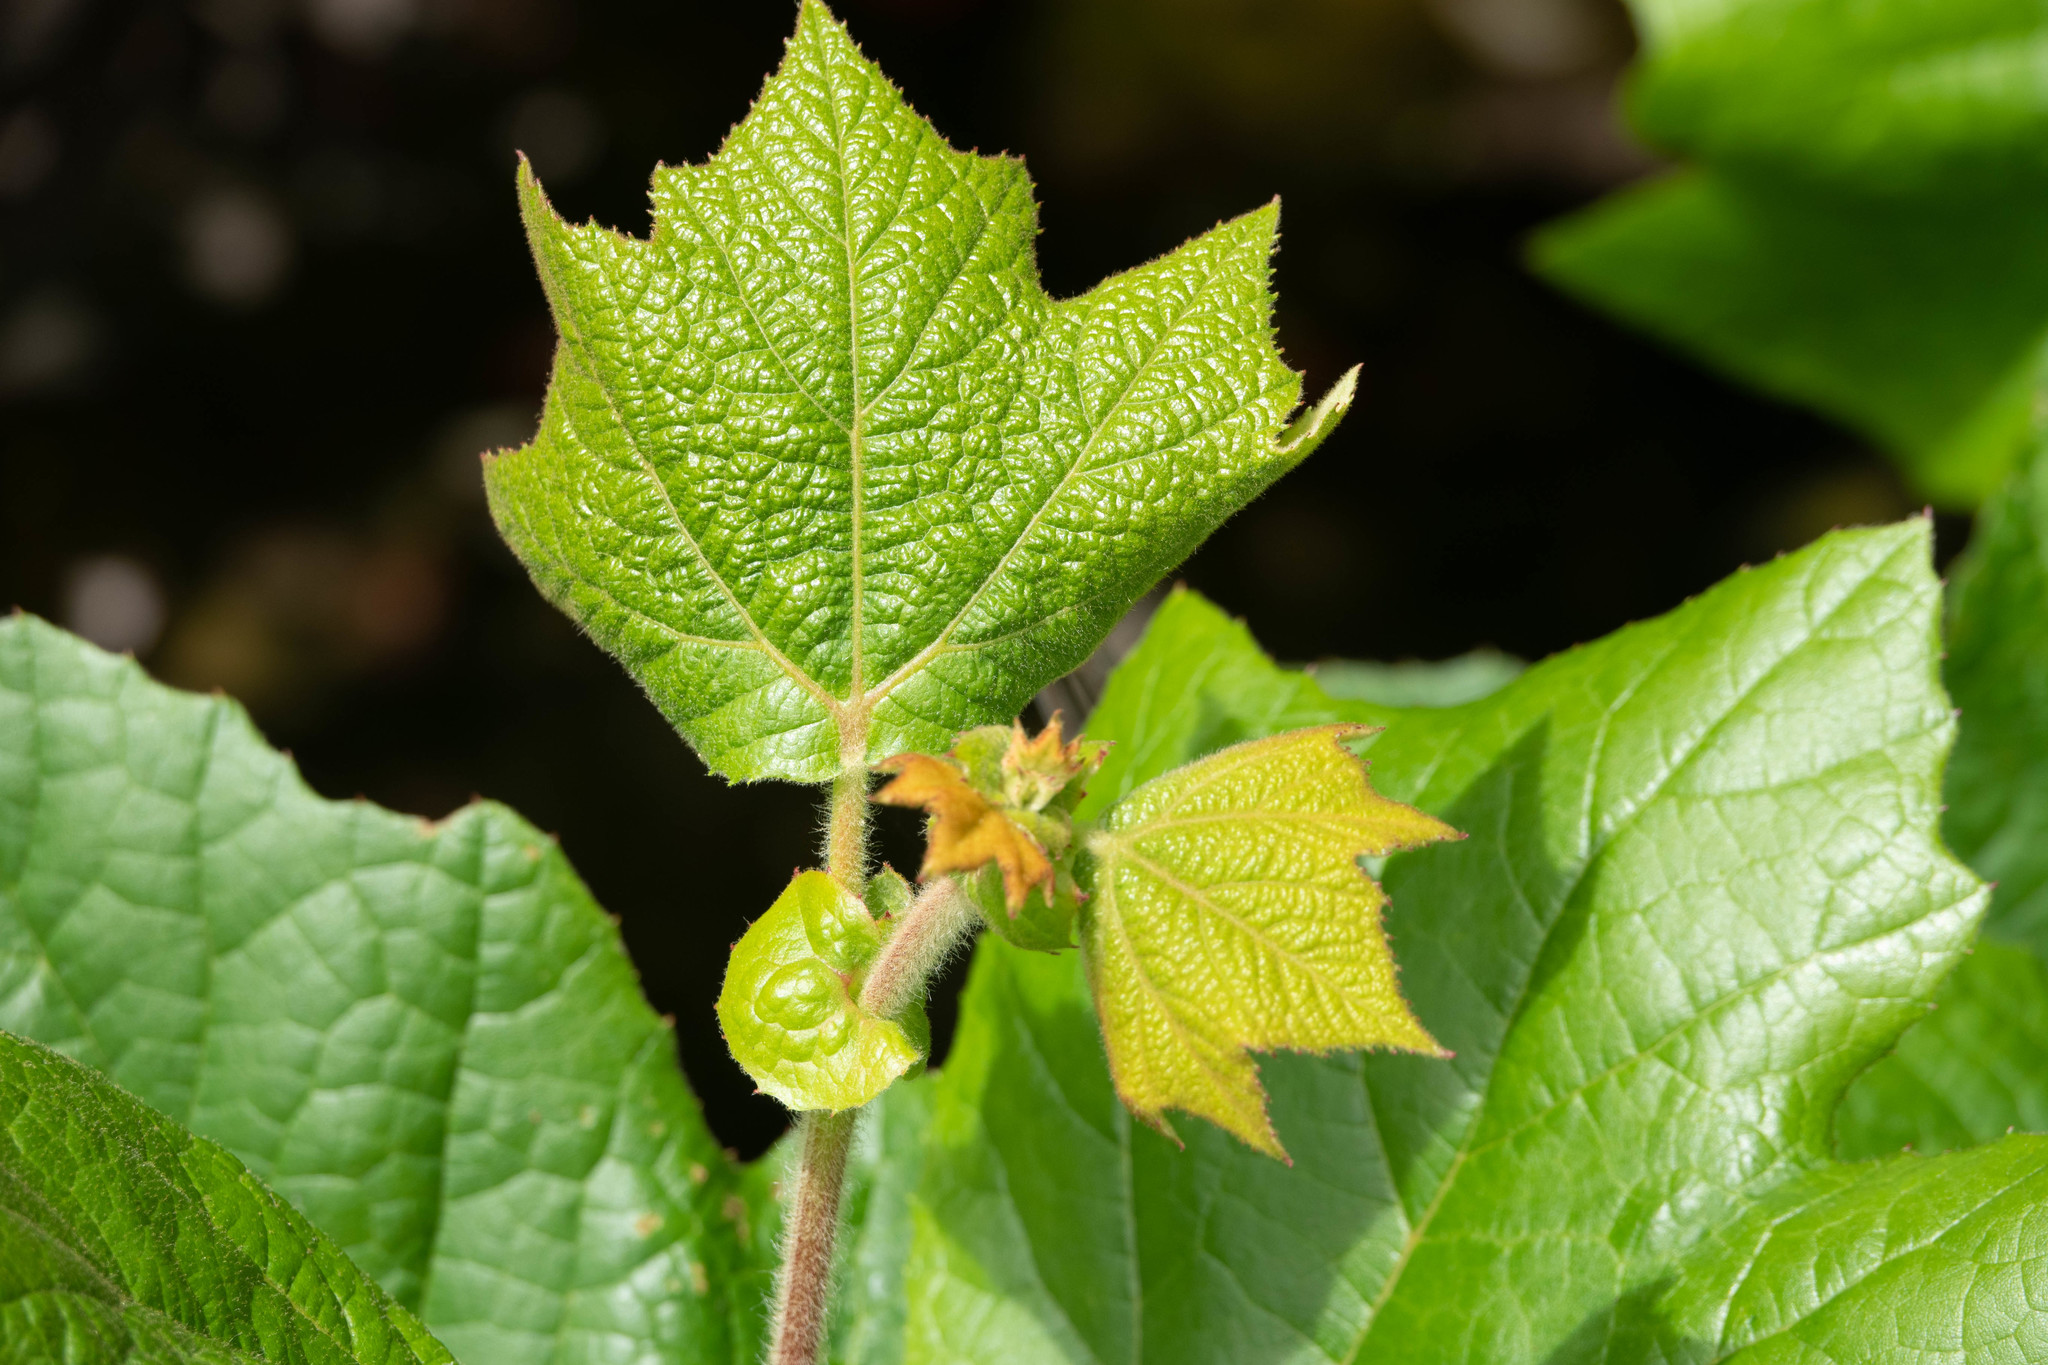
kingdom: Plantae
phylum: Tracheophyta
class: Magnoliopsida
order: Proteales
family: Platanaceae
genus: Platanus
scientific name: Platanus racemosa
